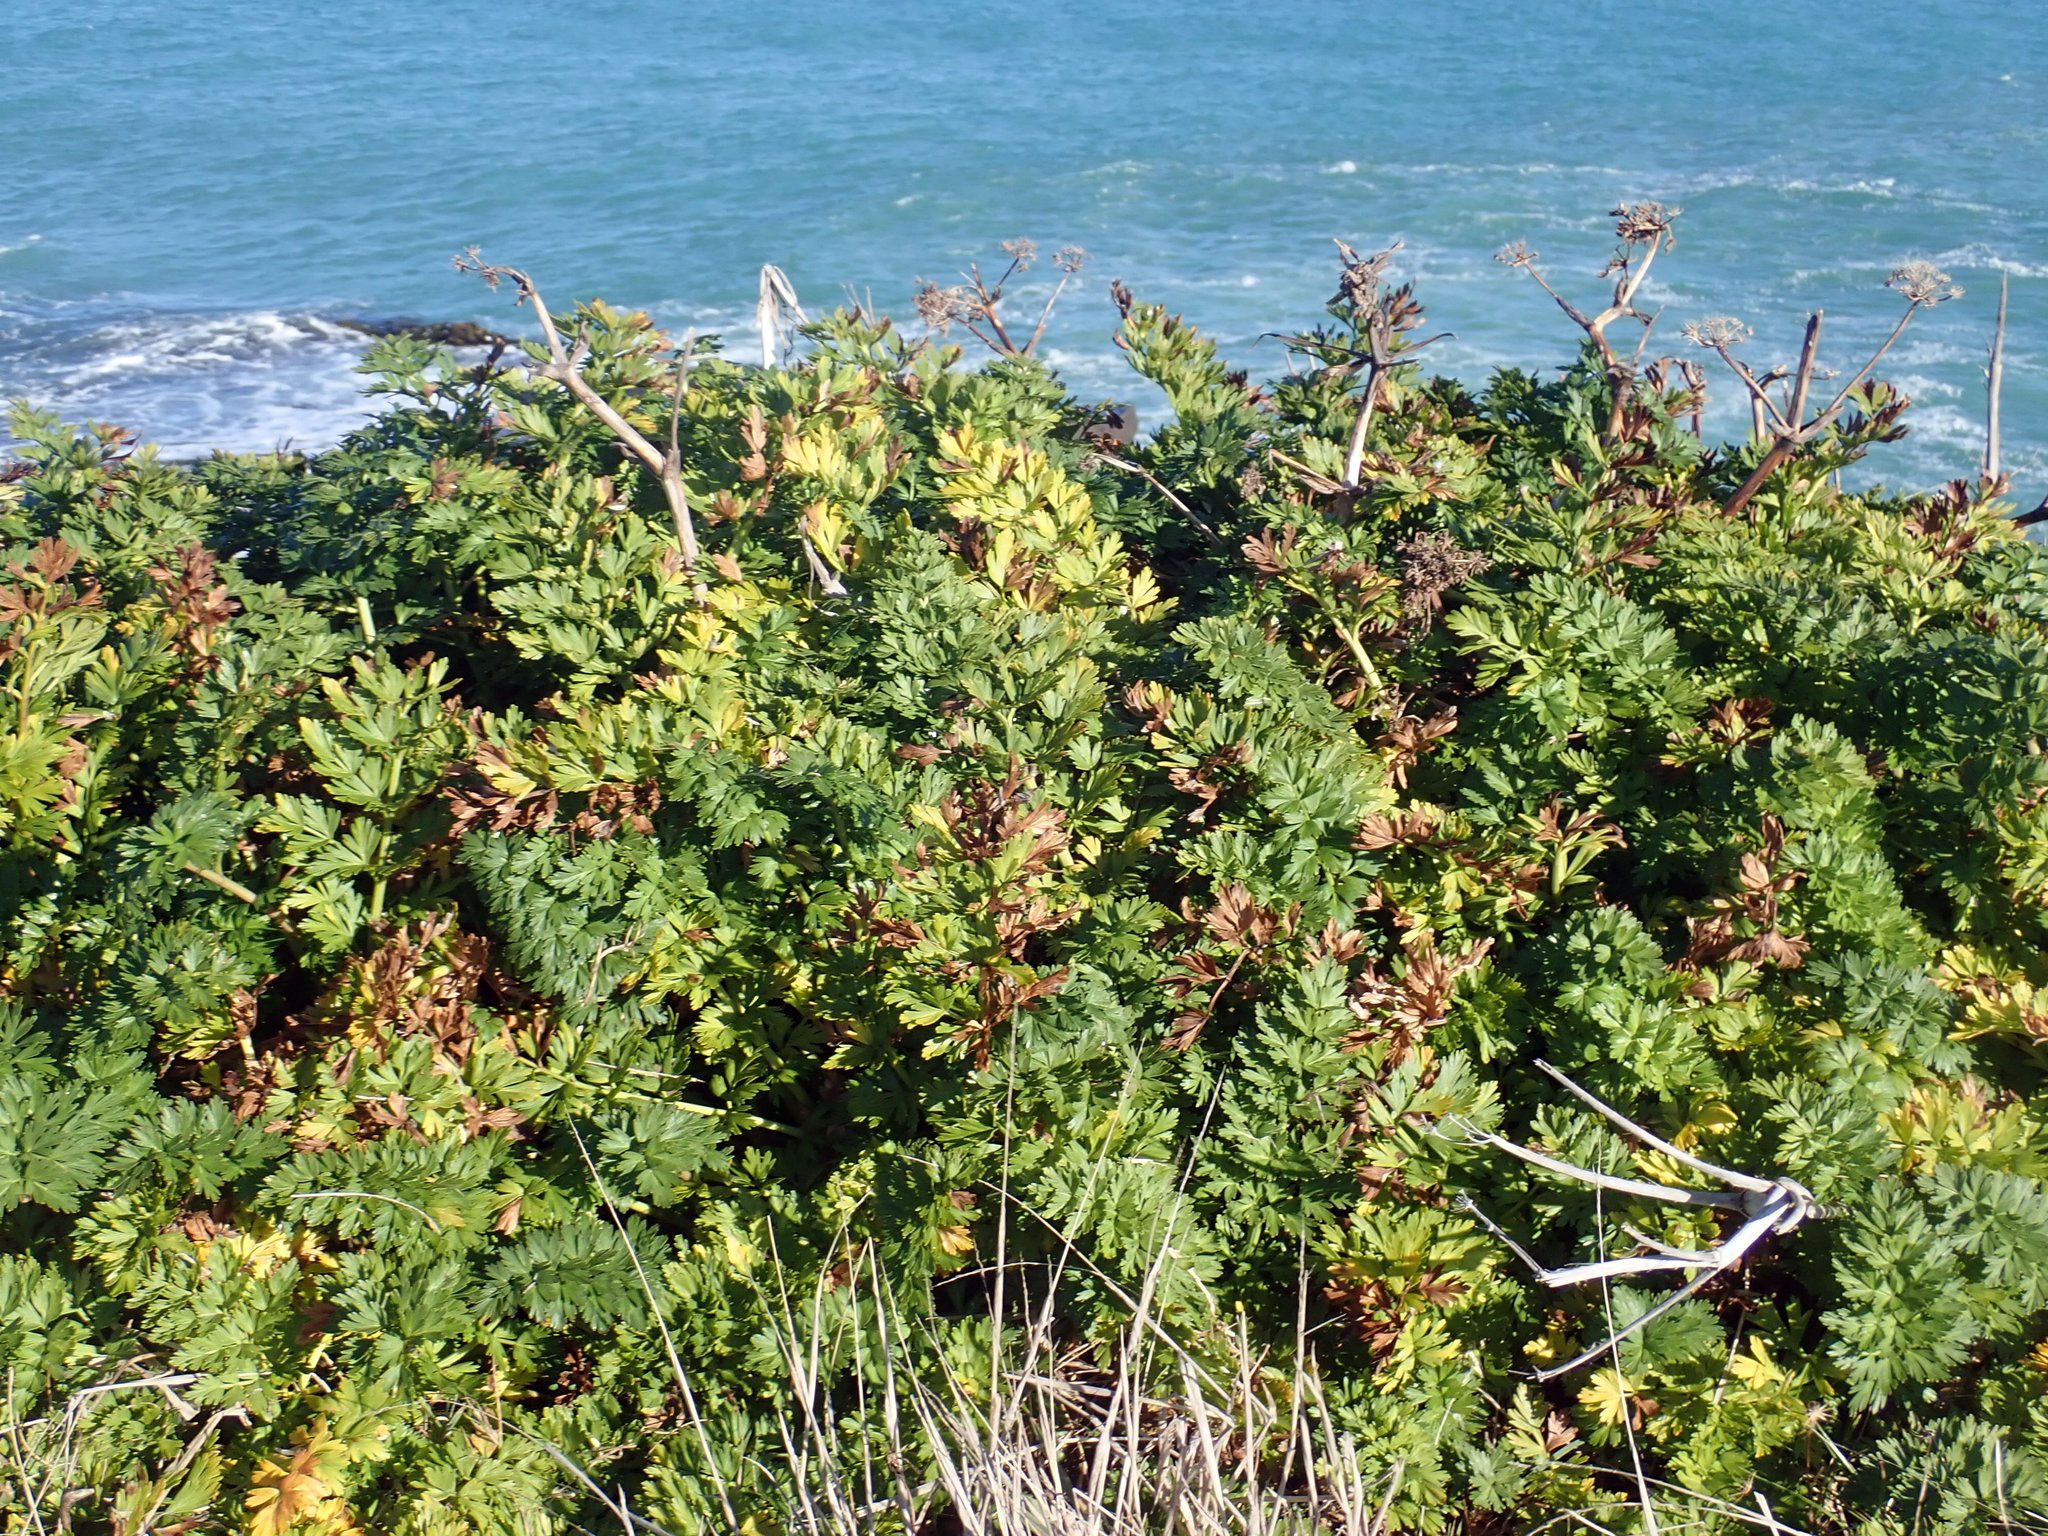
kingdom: Plantae
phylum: Tracheophyta
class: Magnoliopsida
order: Apiales
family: Apiaceae
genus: Anisotome
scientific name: Anisotome lyallii
